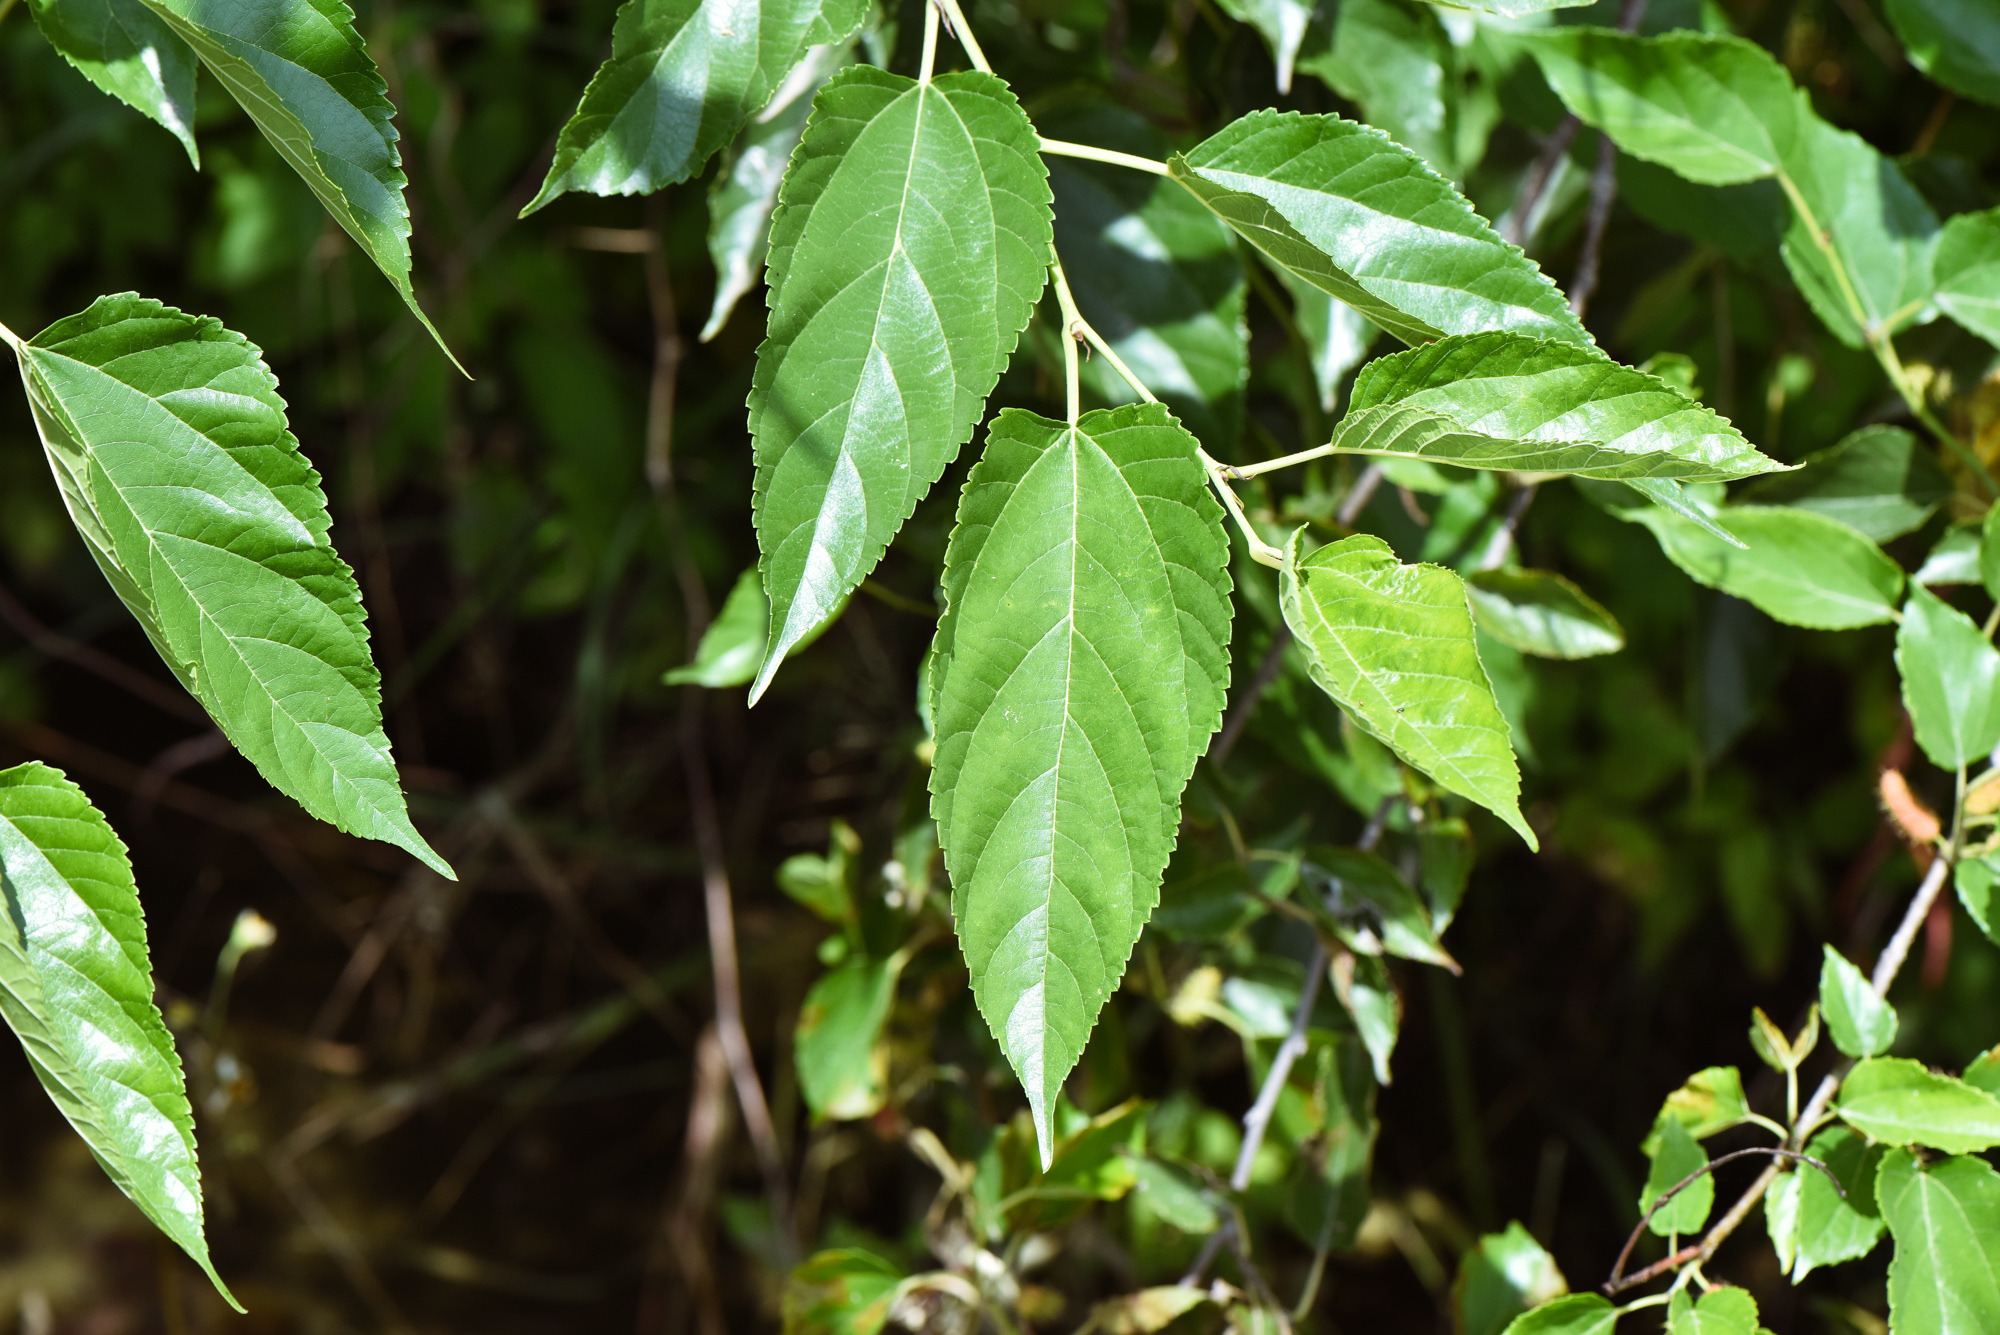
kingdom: Plantae
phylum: Tracheophyta
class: Magnoliopsida
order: Rosales
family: Moraceae
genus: Morus
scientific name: Morus indica
